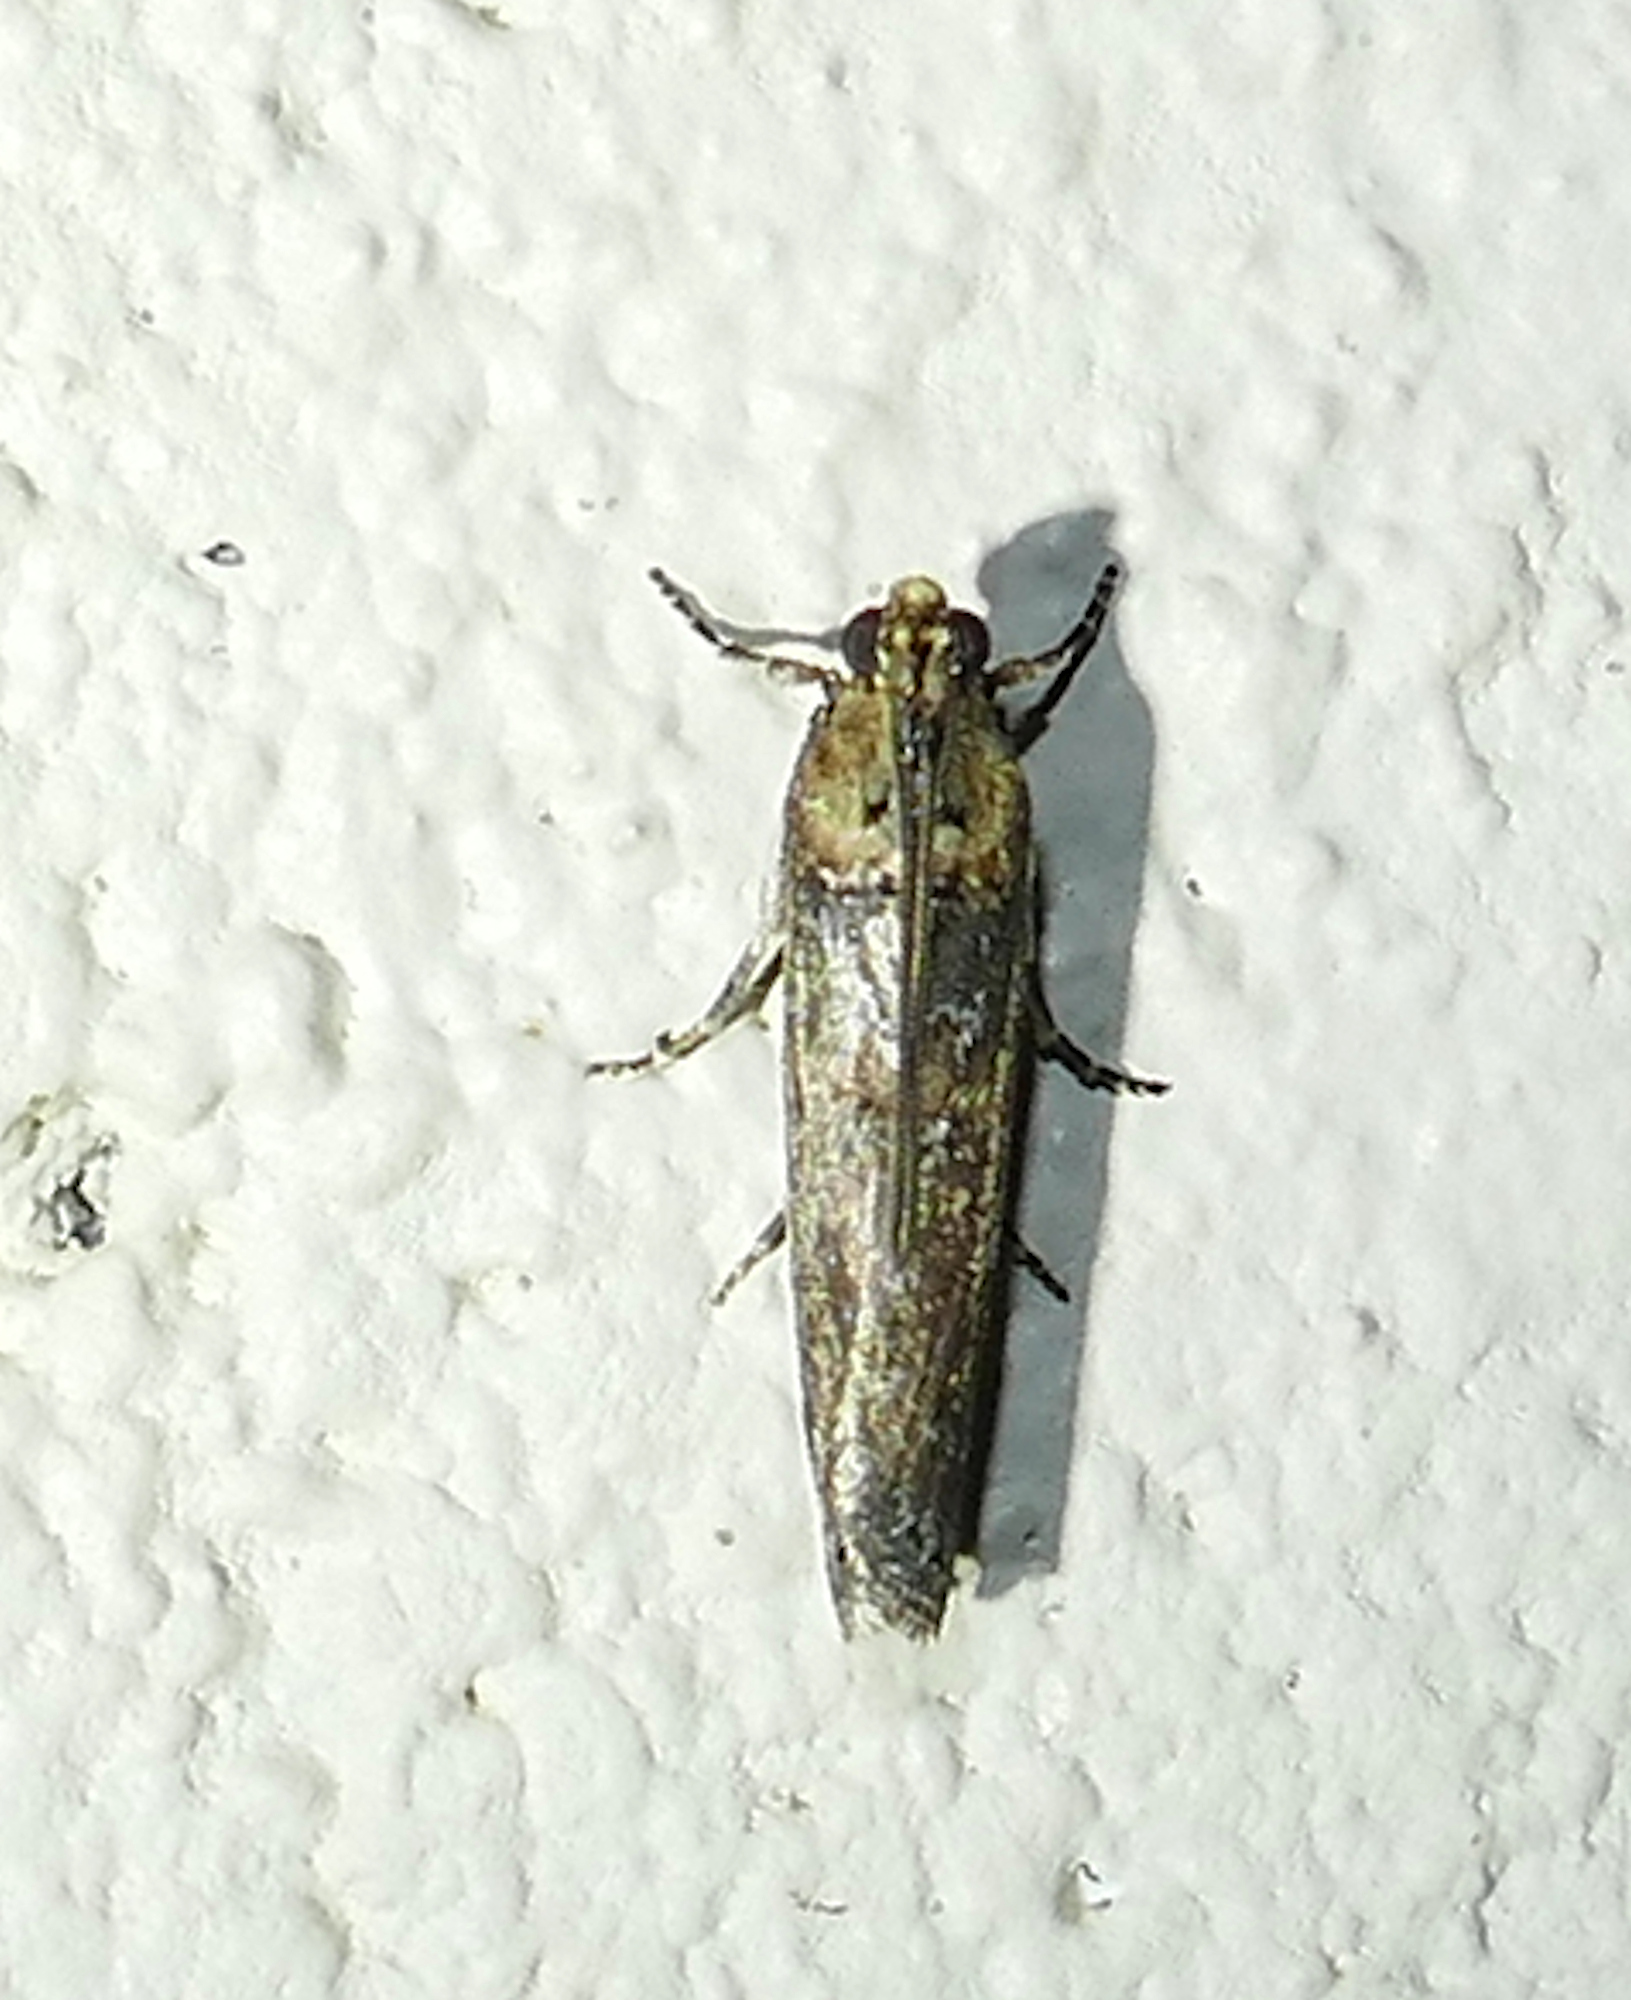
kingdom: Animalia
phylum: Arthropoda
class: Insecta
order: Lepidoptera
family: Pyralidae
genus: Adelphia
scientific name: Adelphia petrella
